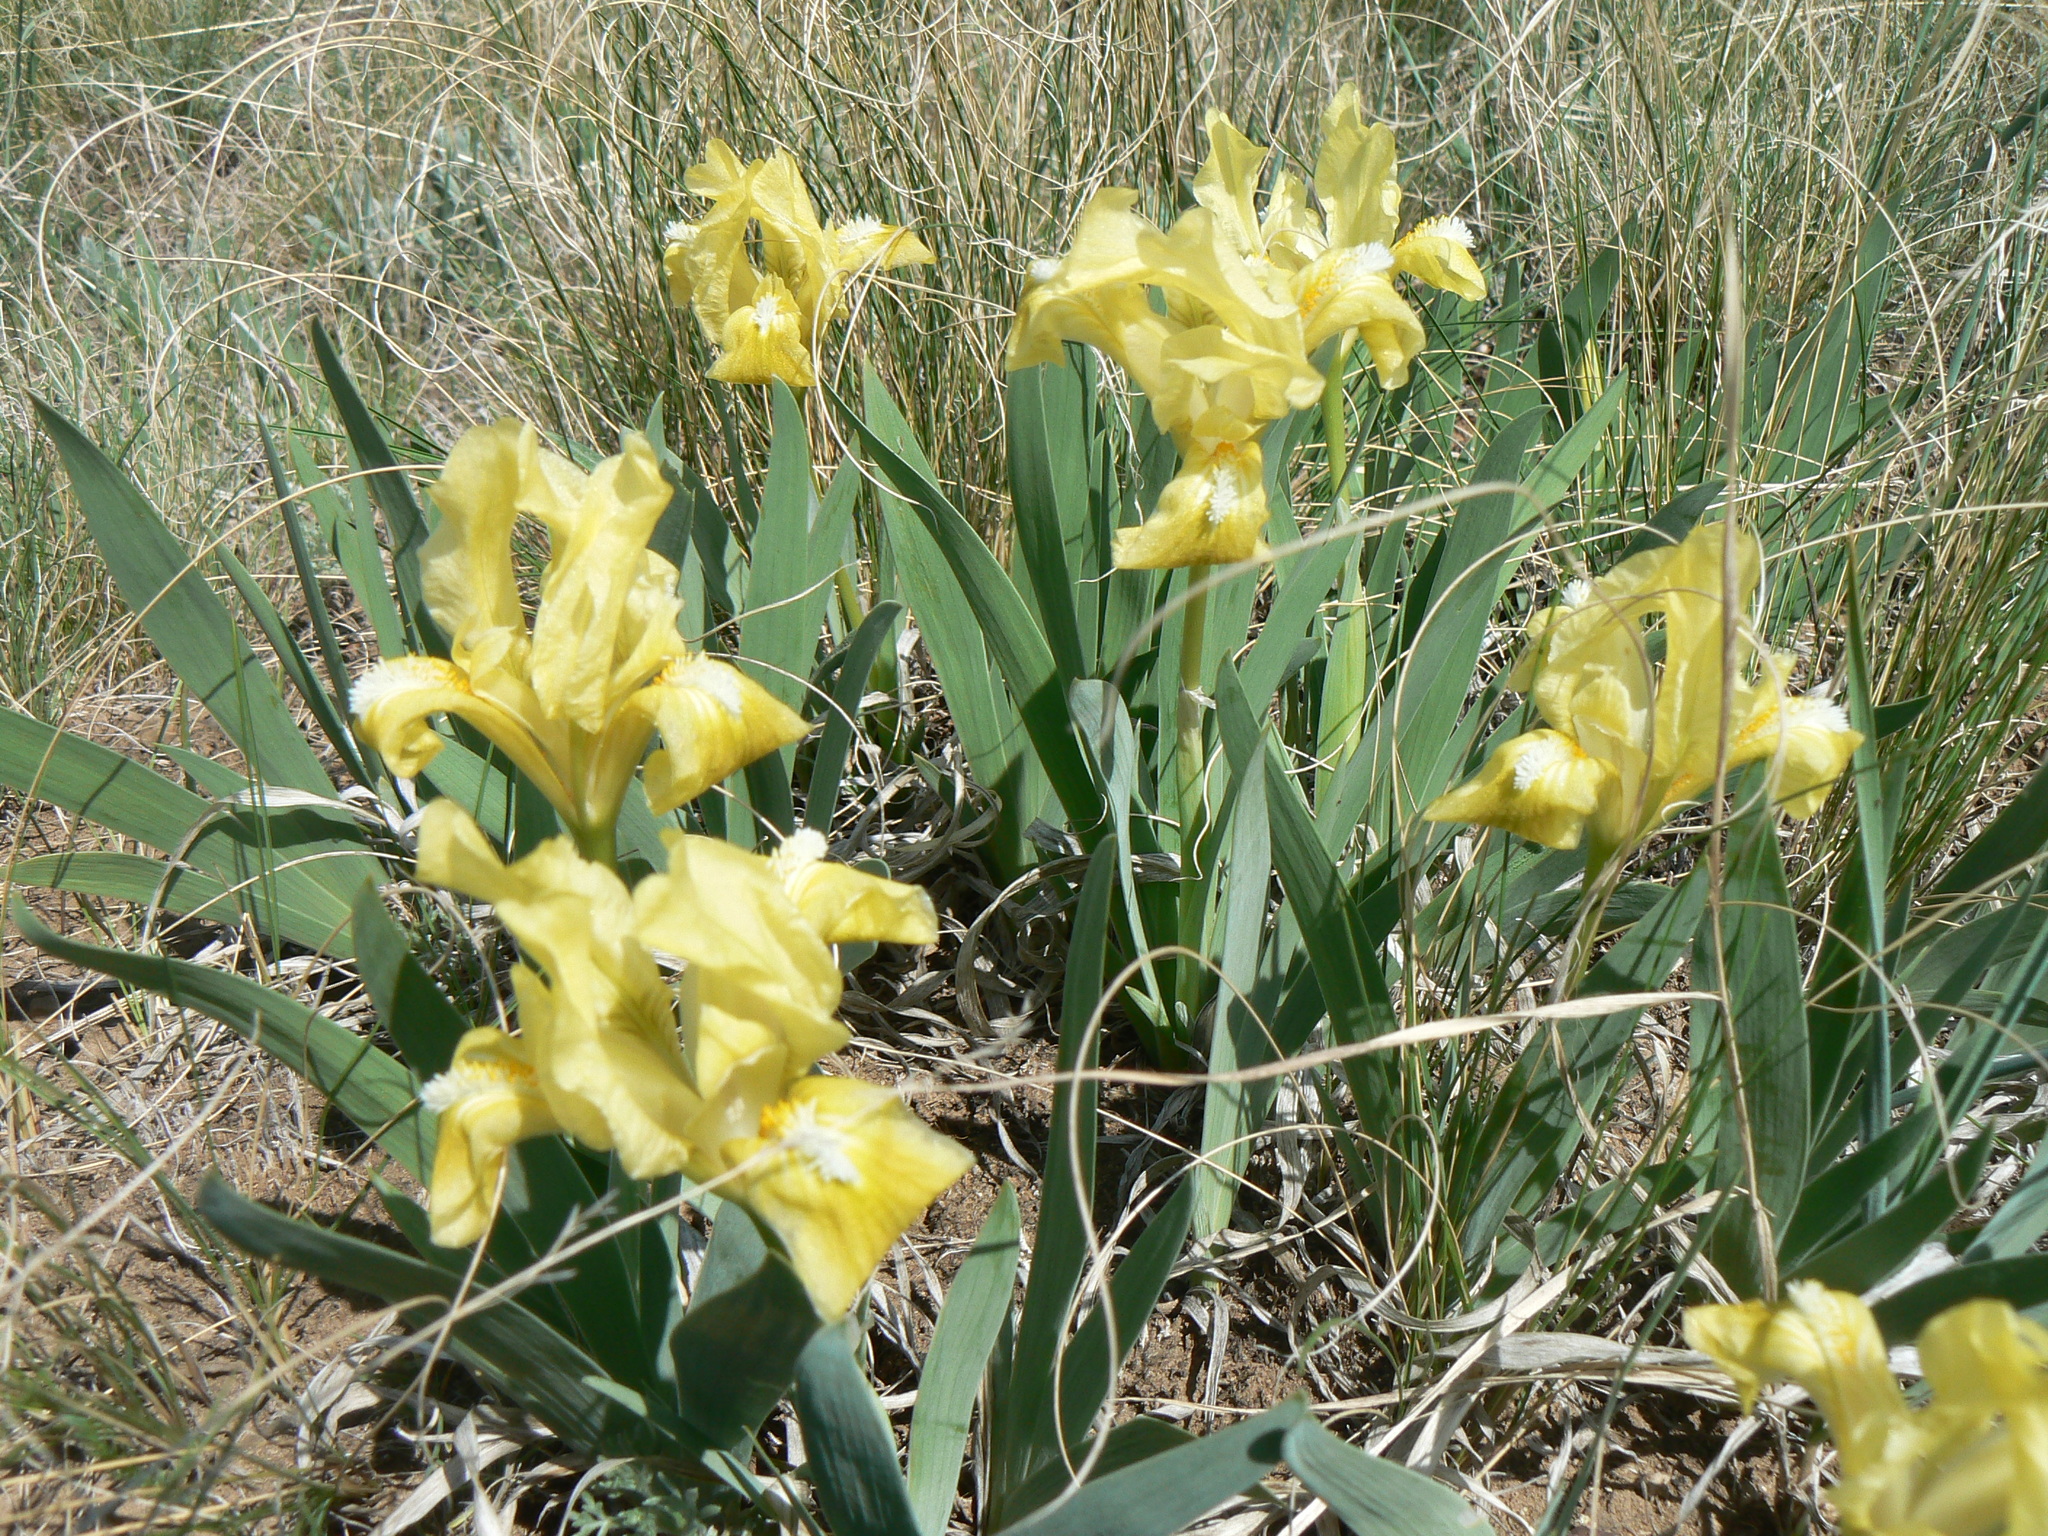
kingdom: Plantae
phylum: Tracheophyta
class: Liliopsida
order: Asparagales
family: Iridaceae
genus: Iris
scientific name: Iris pumila
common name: Dwarf iris
